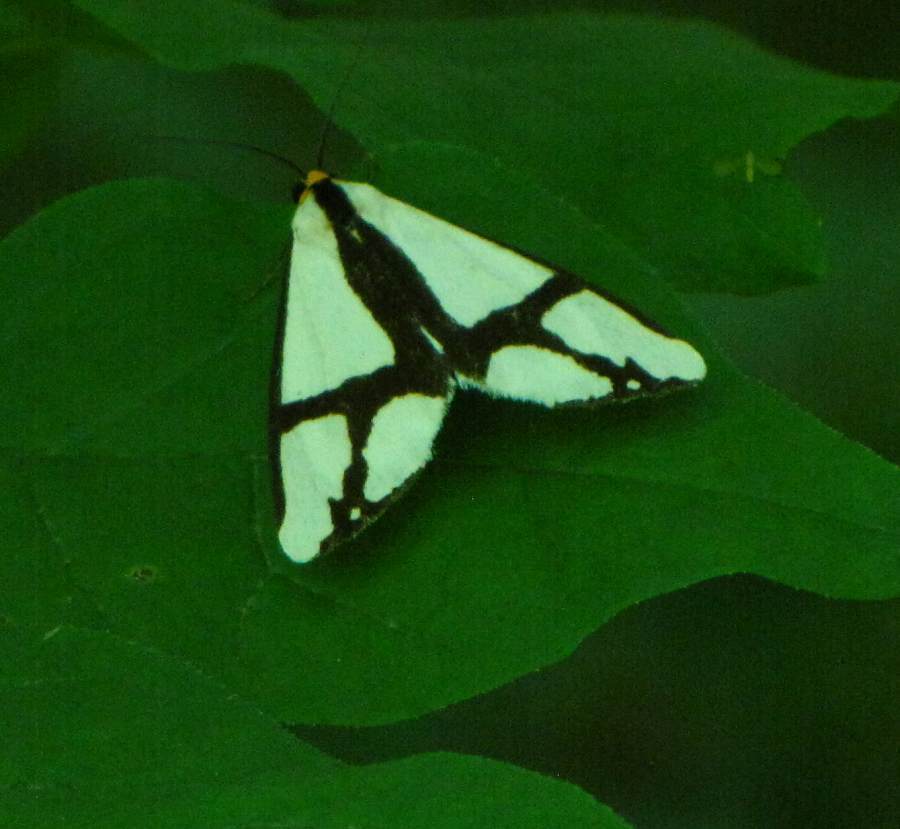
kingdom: Animalia
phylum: Arthropoda
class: Insecta
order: Lepidoptera
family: Erebidae
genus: Haploa
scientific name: Haploa contigua
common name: Neighbor moth
